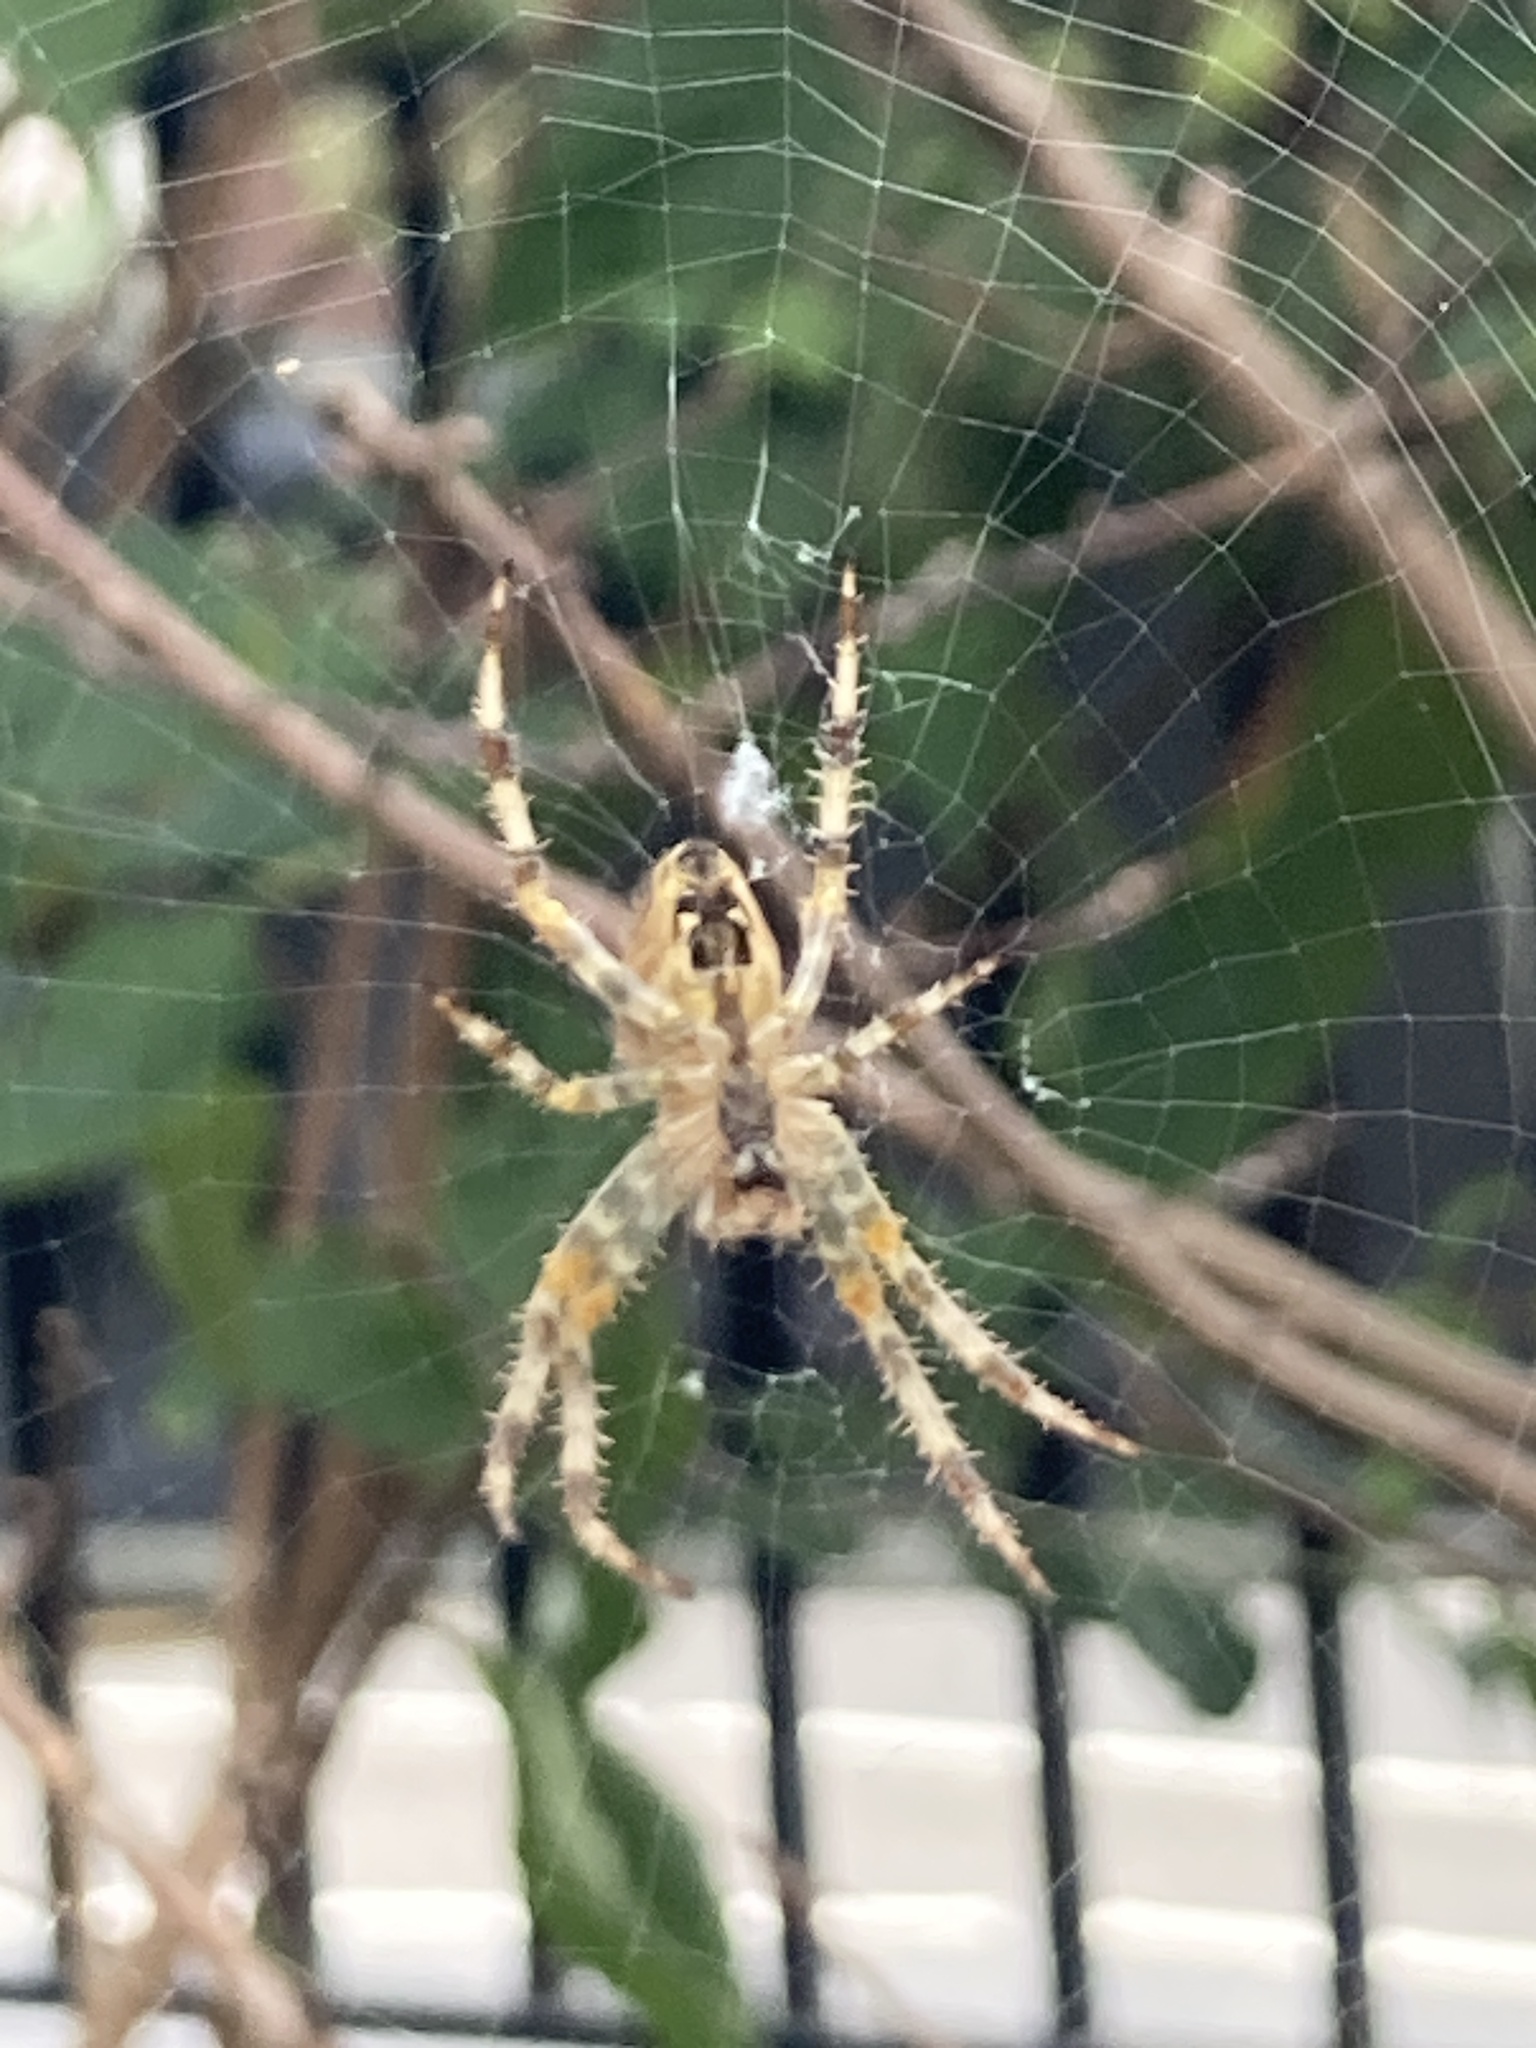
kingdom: Animalia
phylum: Arthropoda
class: Arachnida
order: Araneae
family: Araneidae
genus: Araneus
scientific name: Araneus diadematus
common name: Cross orbweaver
